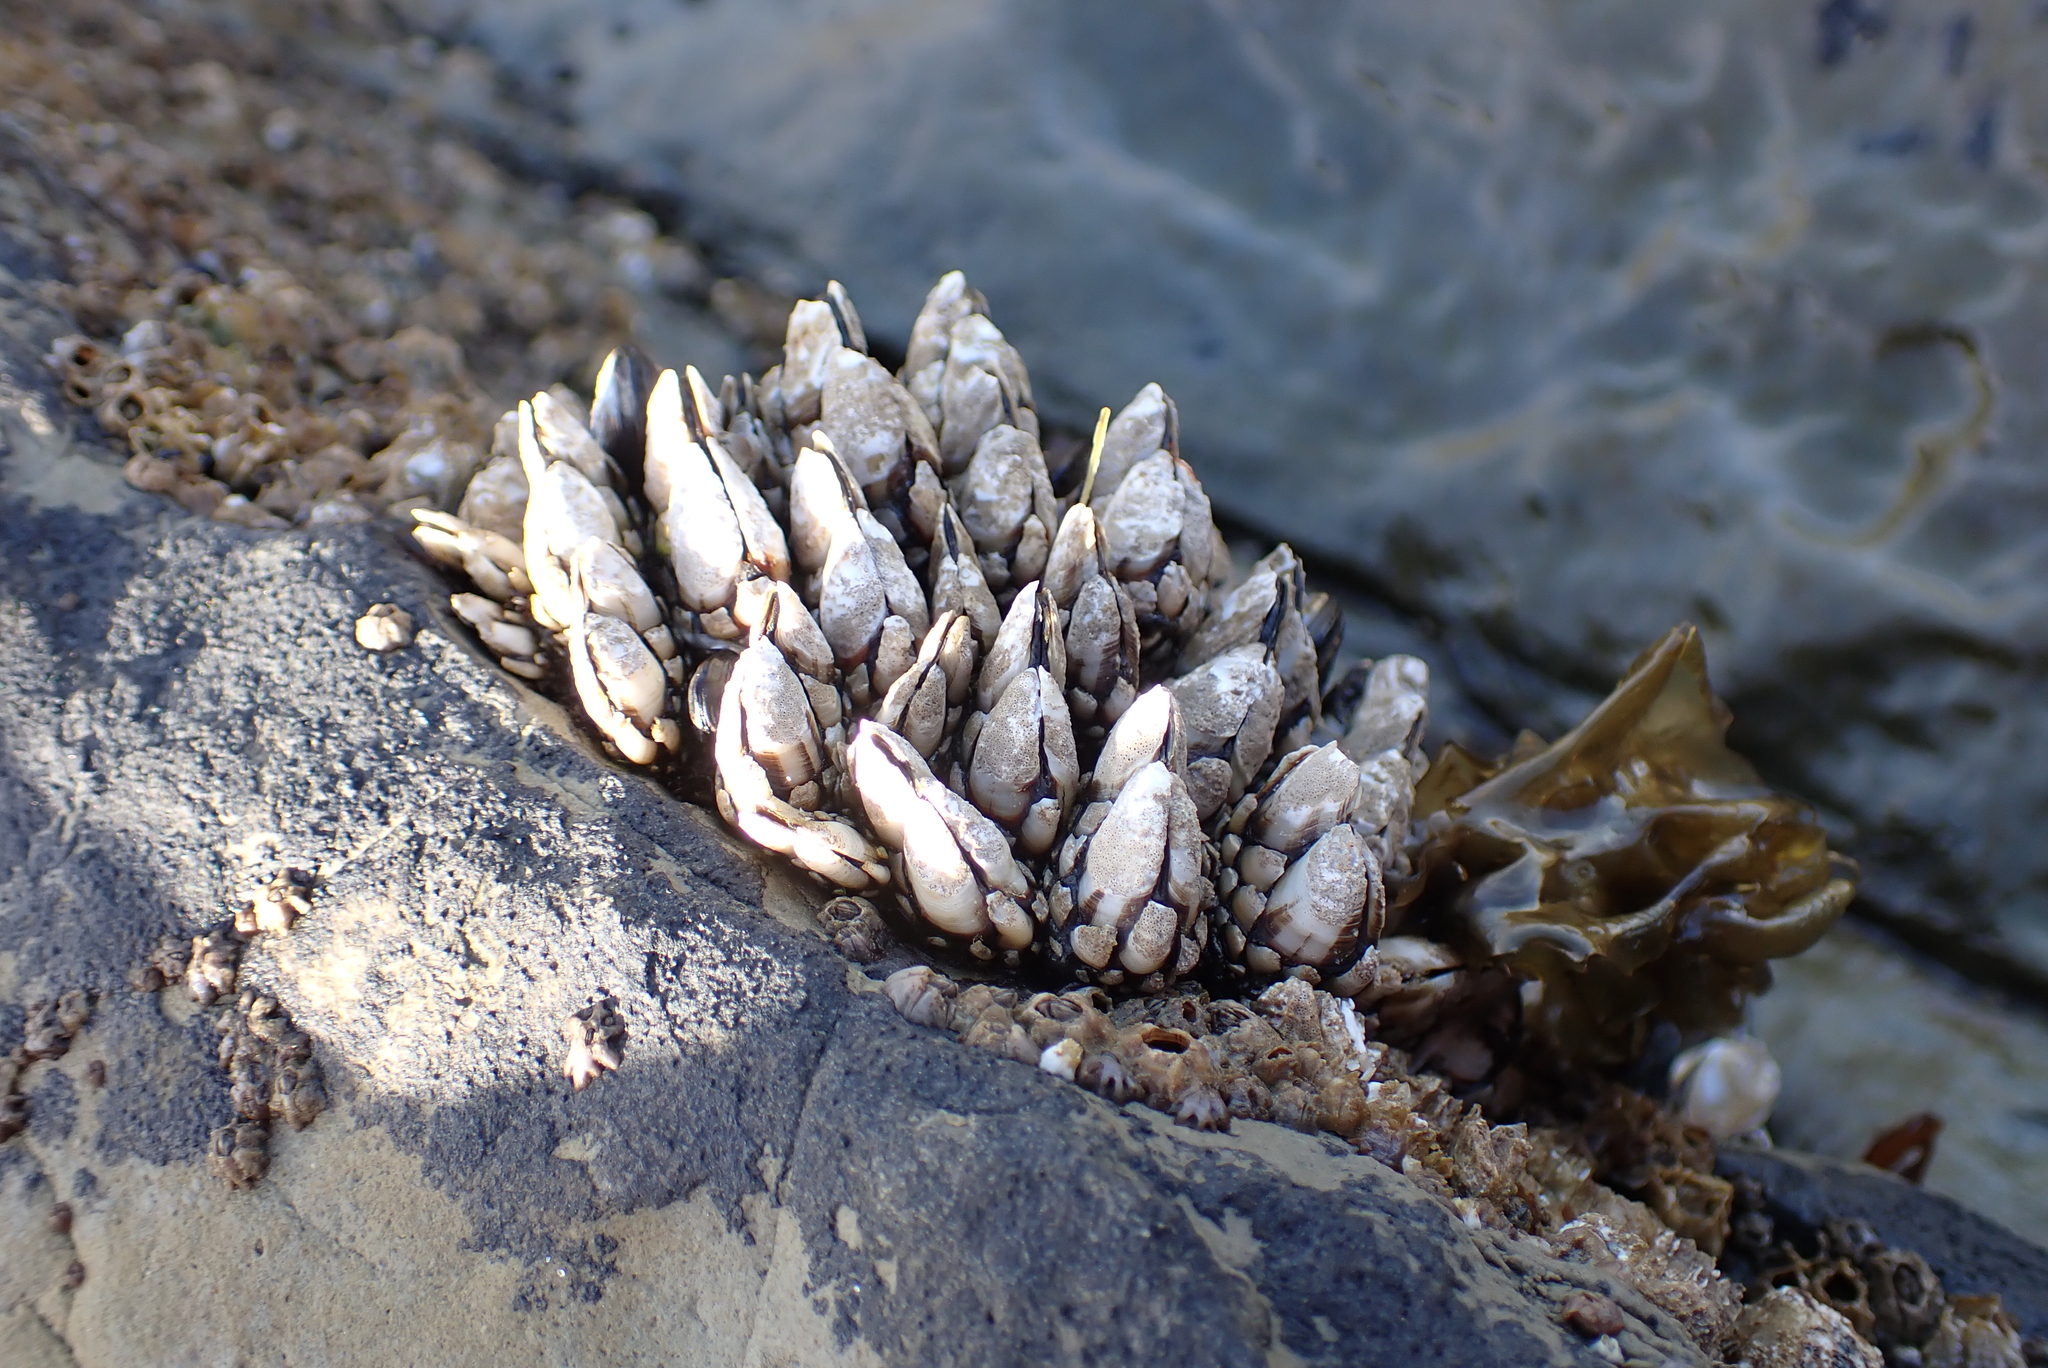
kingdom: Animalia
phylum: Arthropoda
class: Maxillopoda
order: Pedunculata
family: Pollicipedidae
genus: Pollicipes
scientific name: Pollicipes polymerus
